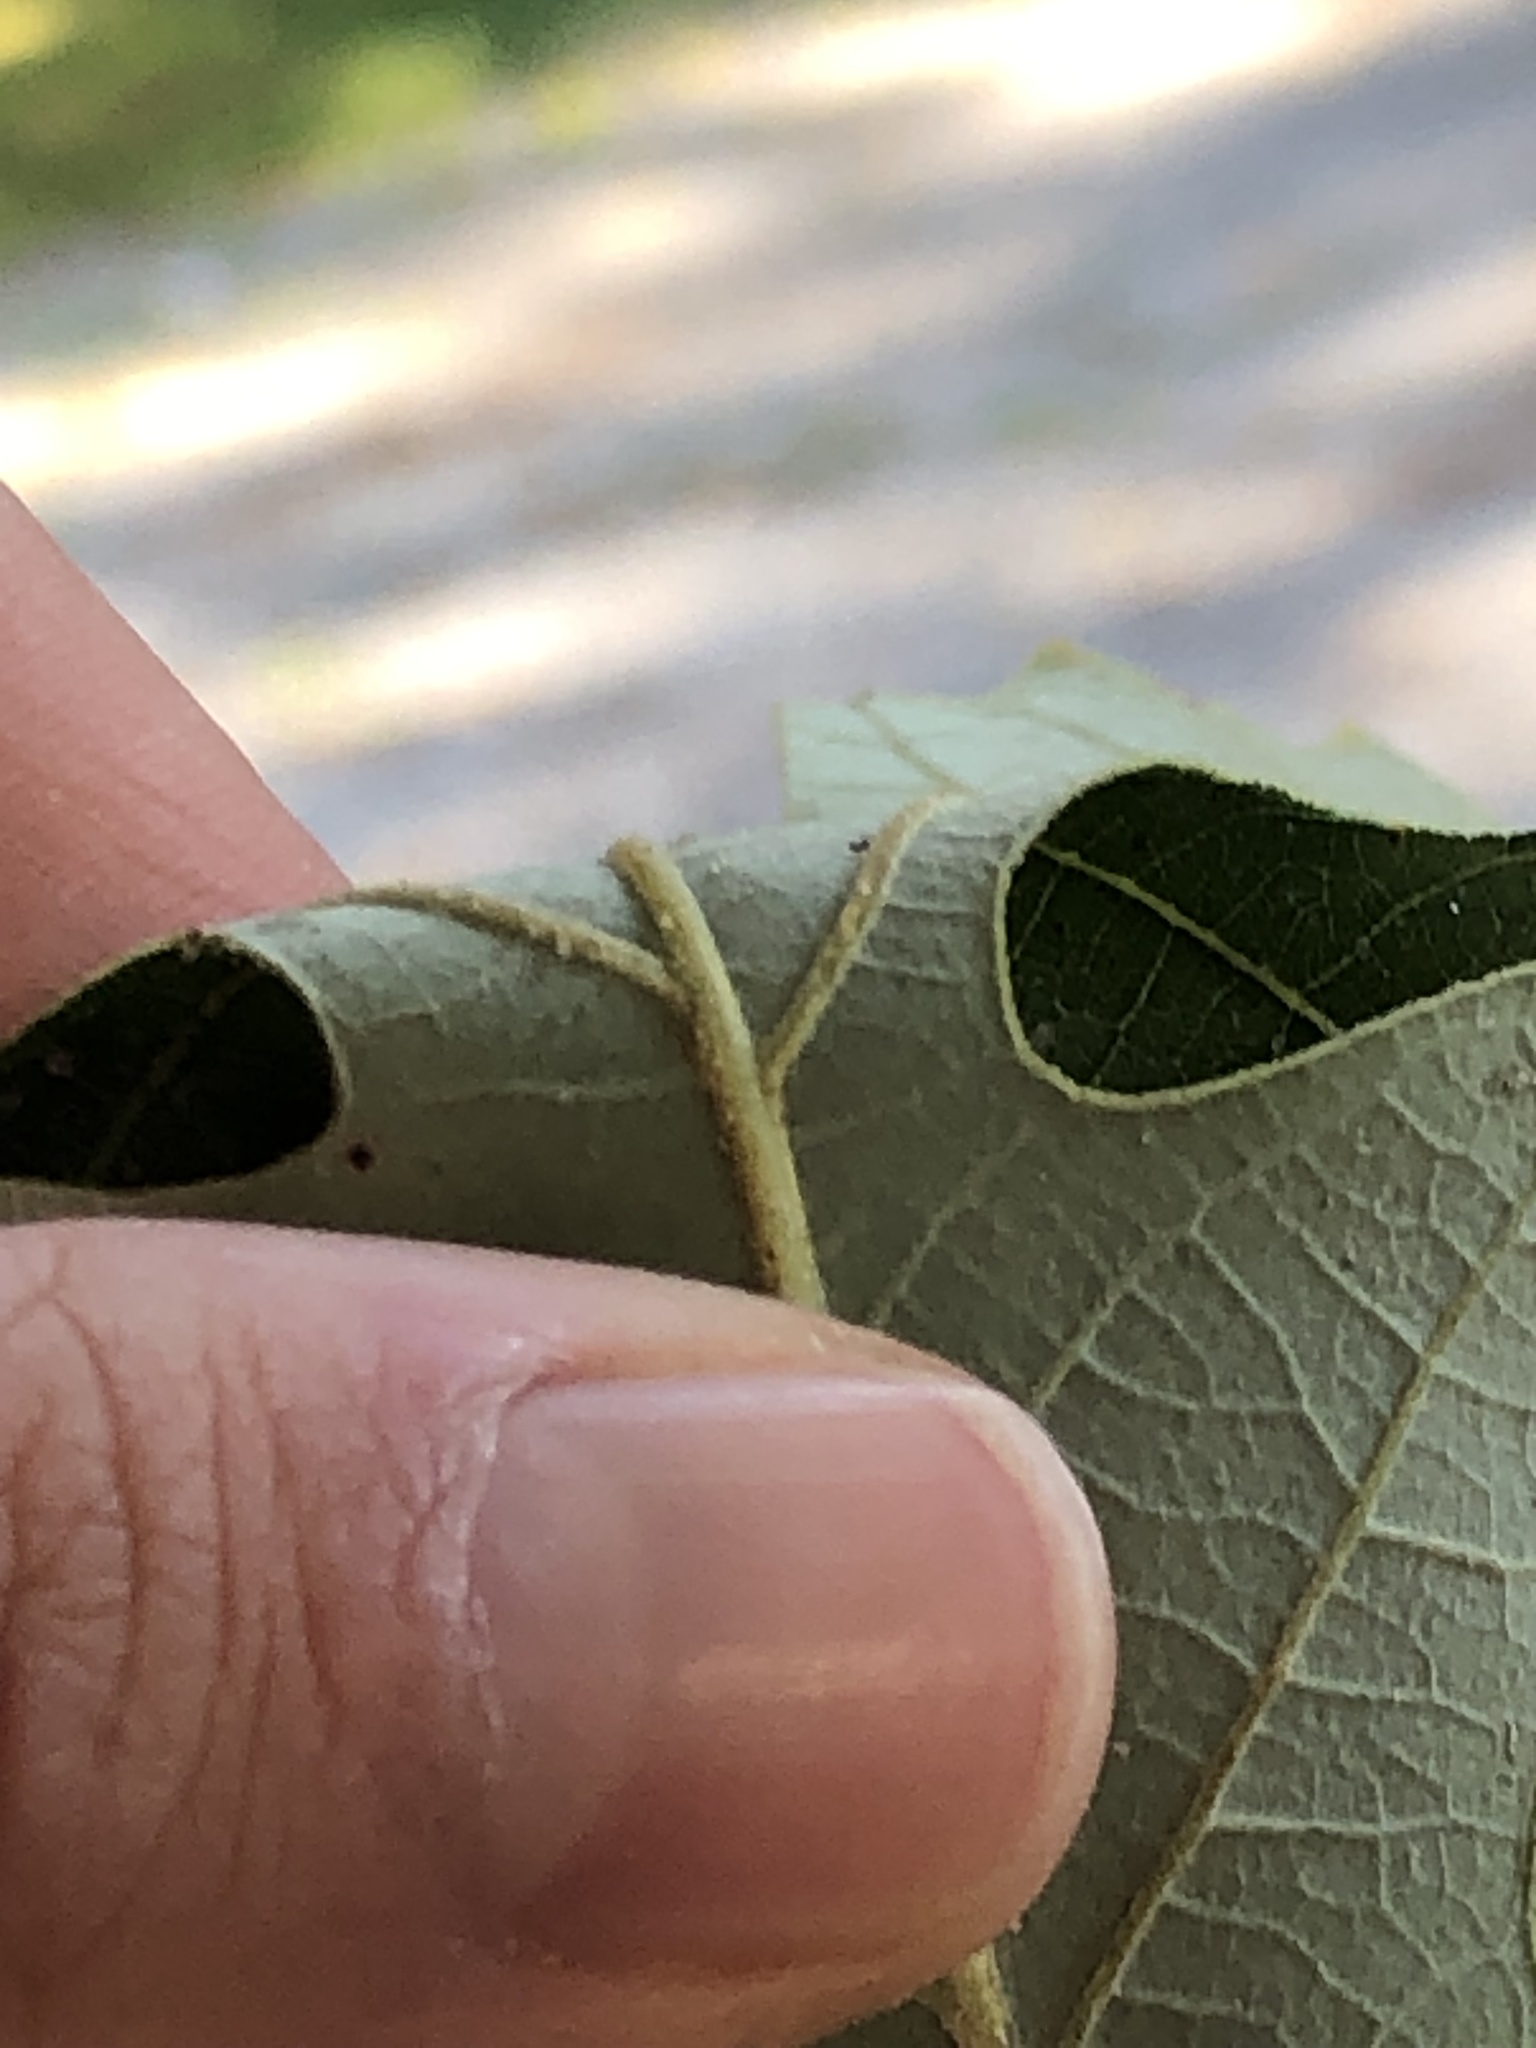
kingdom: Plantae
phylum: Tracheophyta
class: Magnoliopsida
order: Fagales
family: Fagaceae
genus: Quercus
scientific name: Quercus macrocarpa
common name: Bur oak
